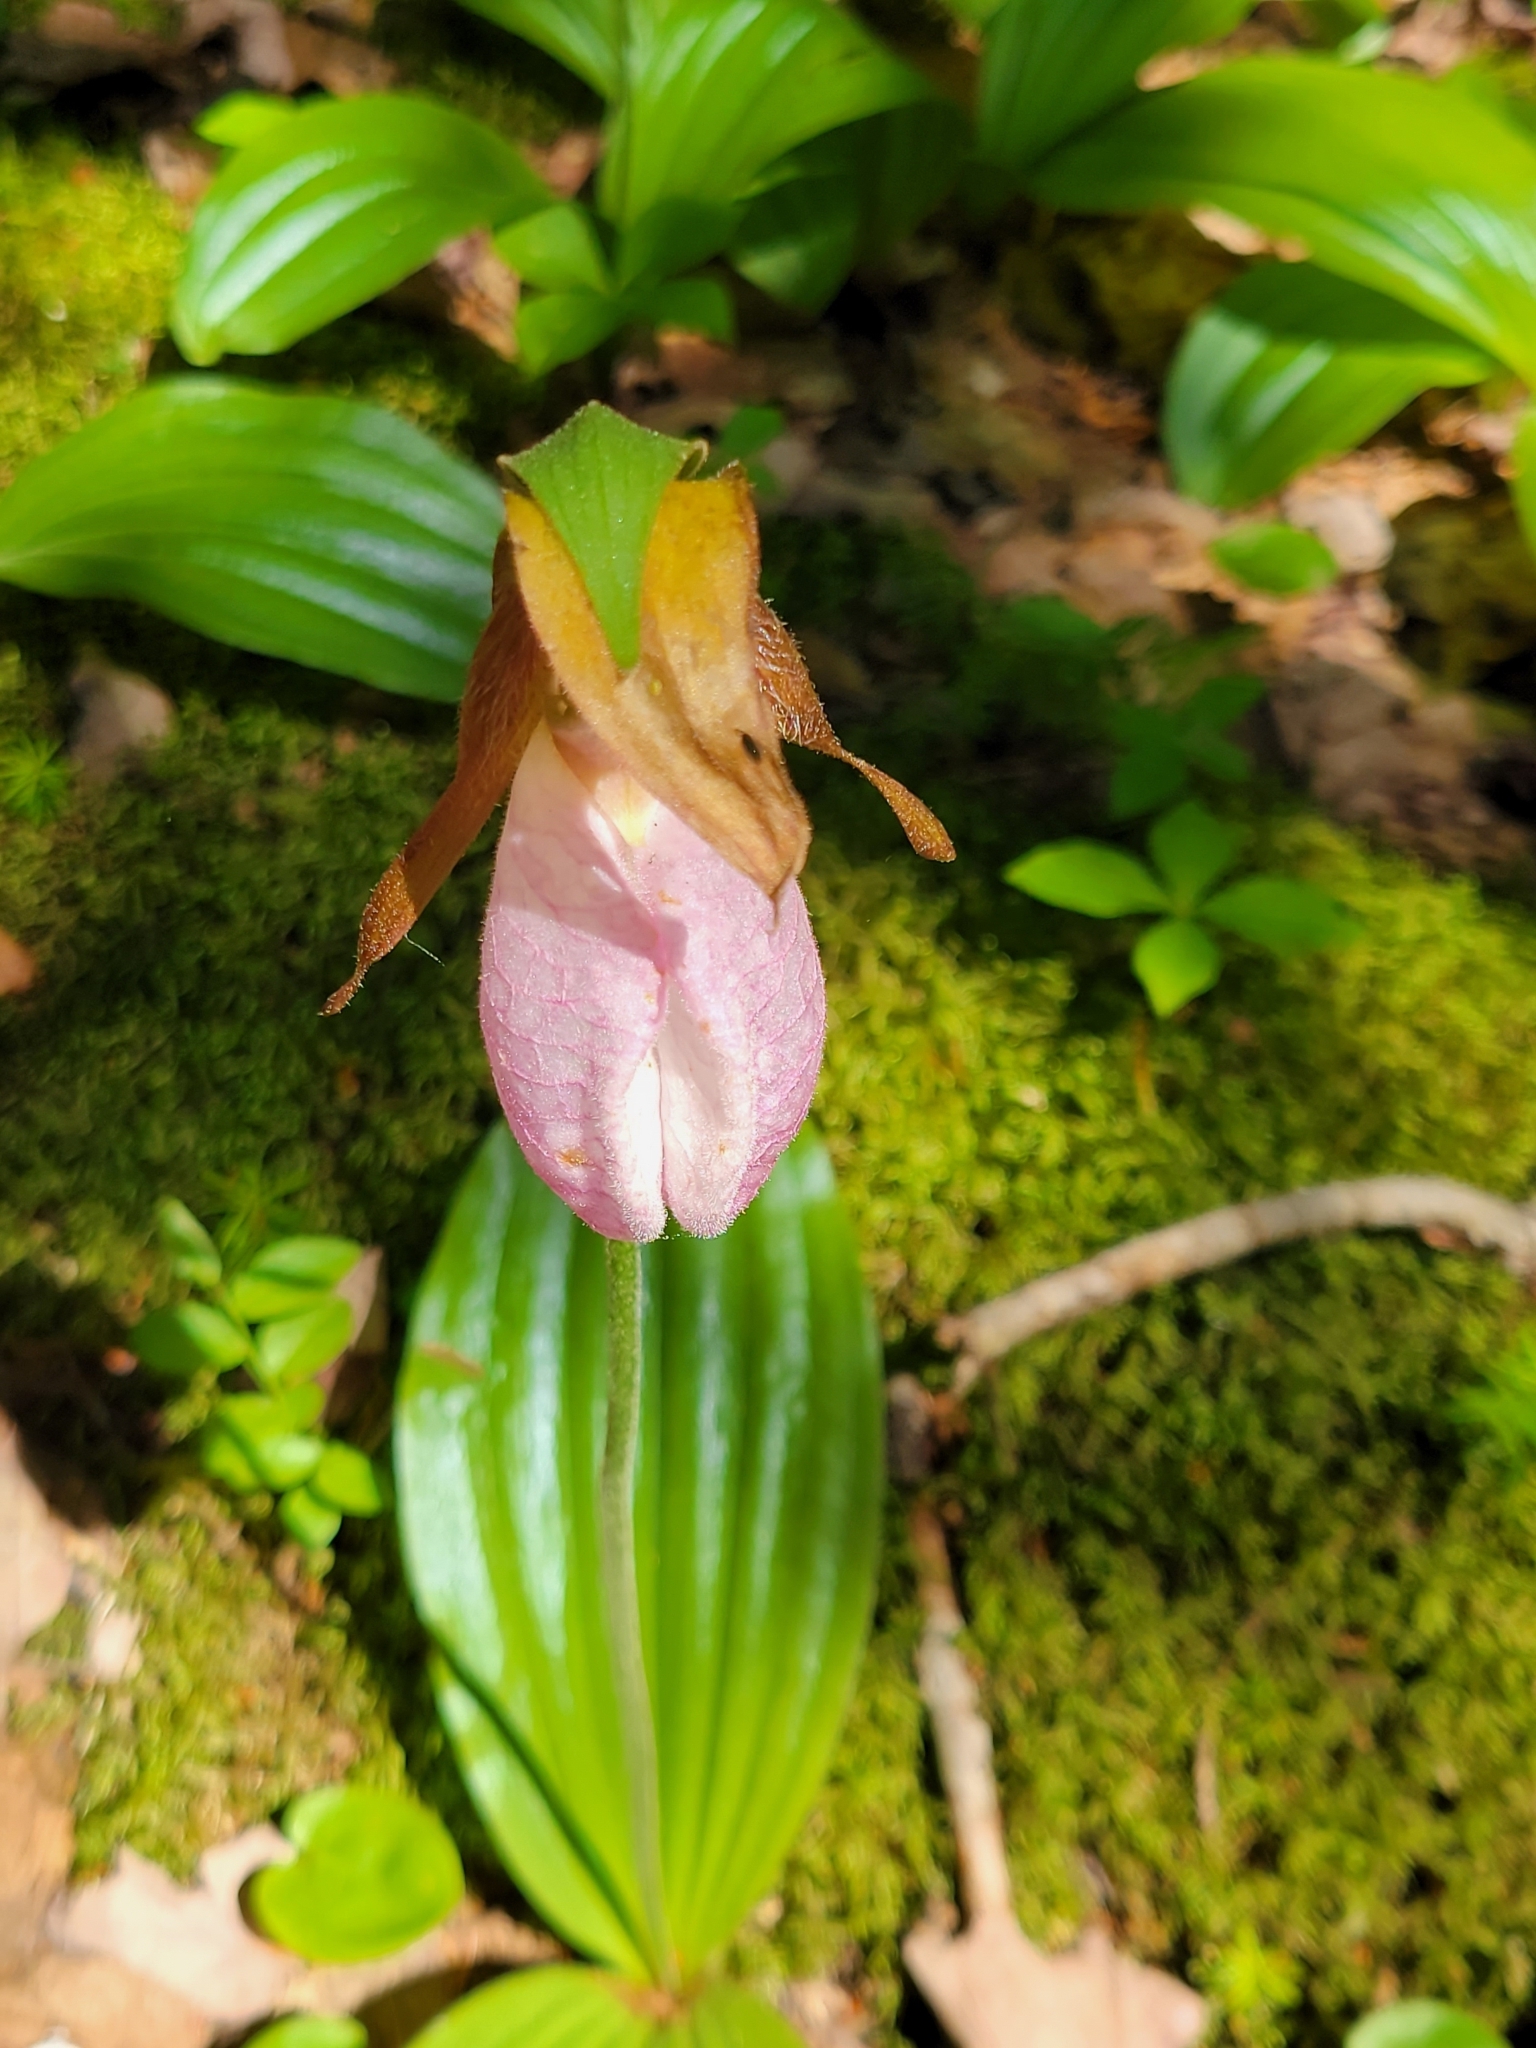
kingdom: Plantae
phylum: Tracheophyta
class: Liliopsida
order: Asparagales
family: Orchidaceae
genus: Cypripedium
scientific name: Cypripedium acaule
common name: Pink lady's-slipper
